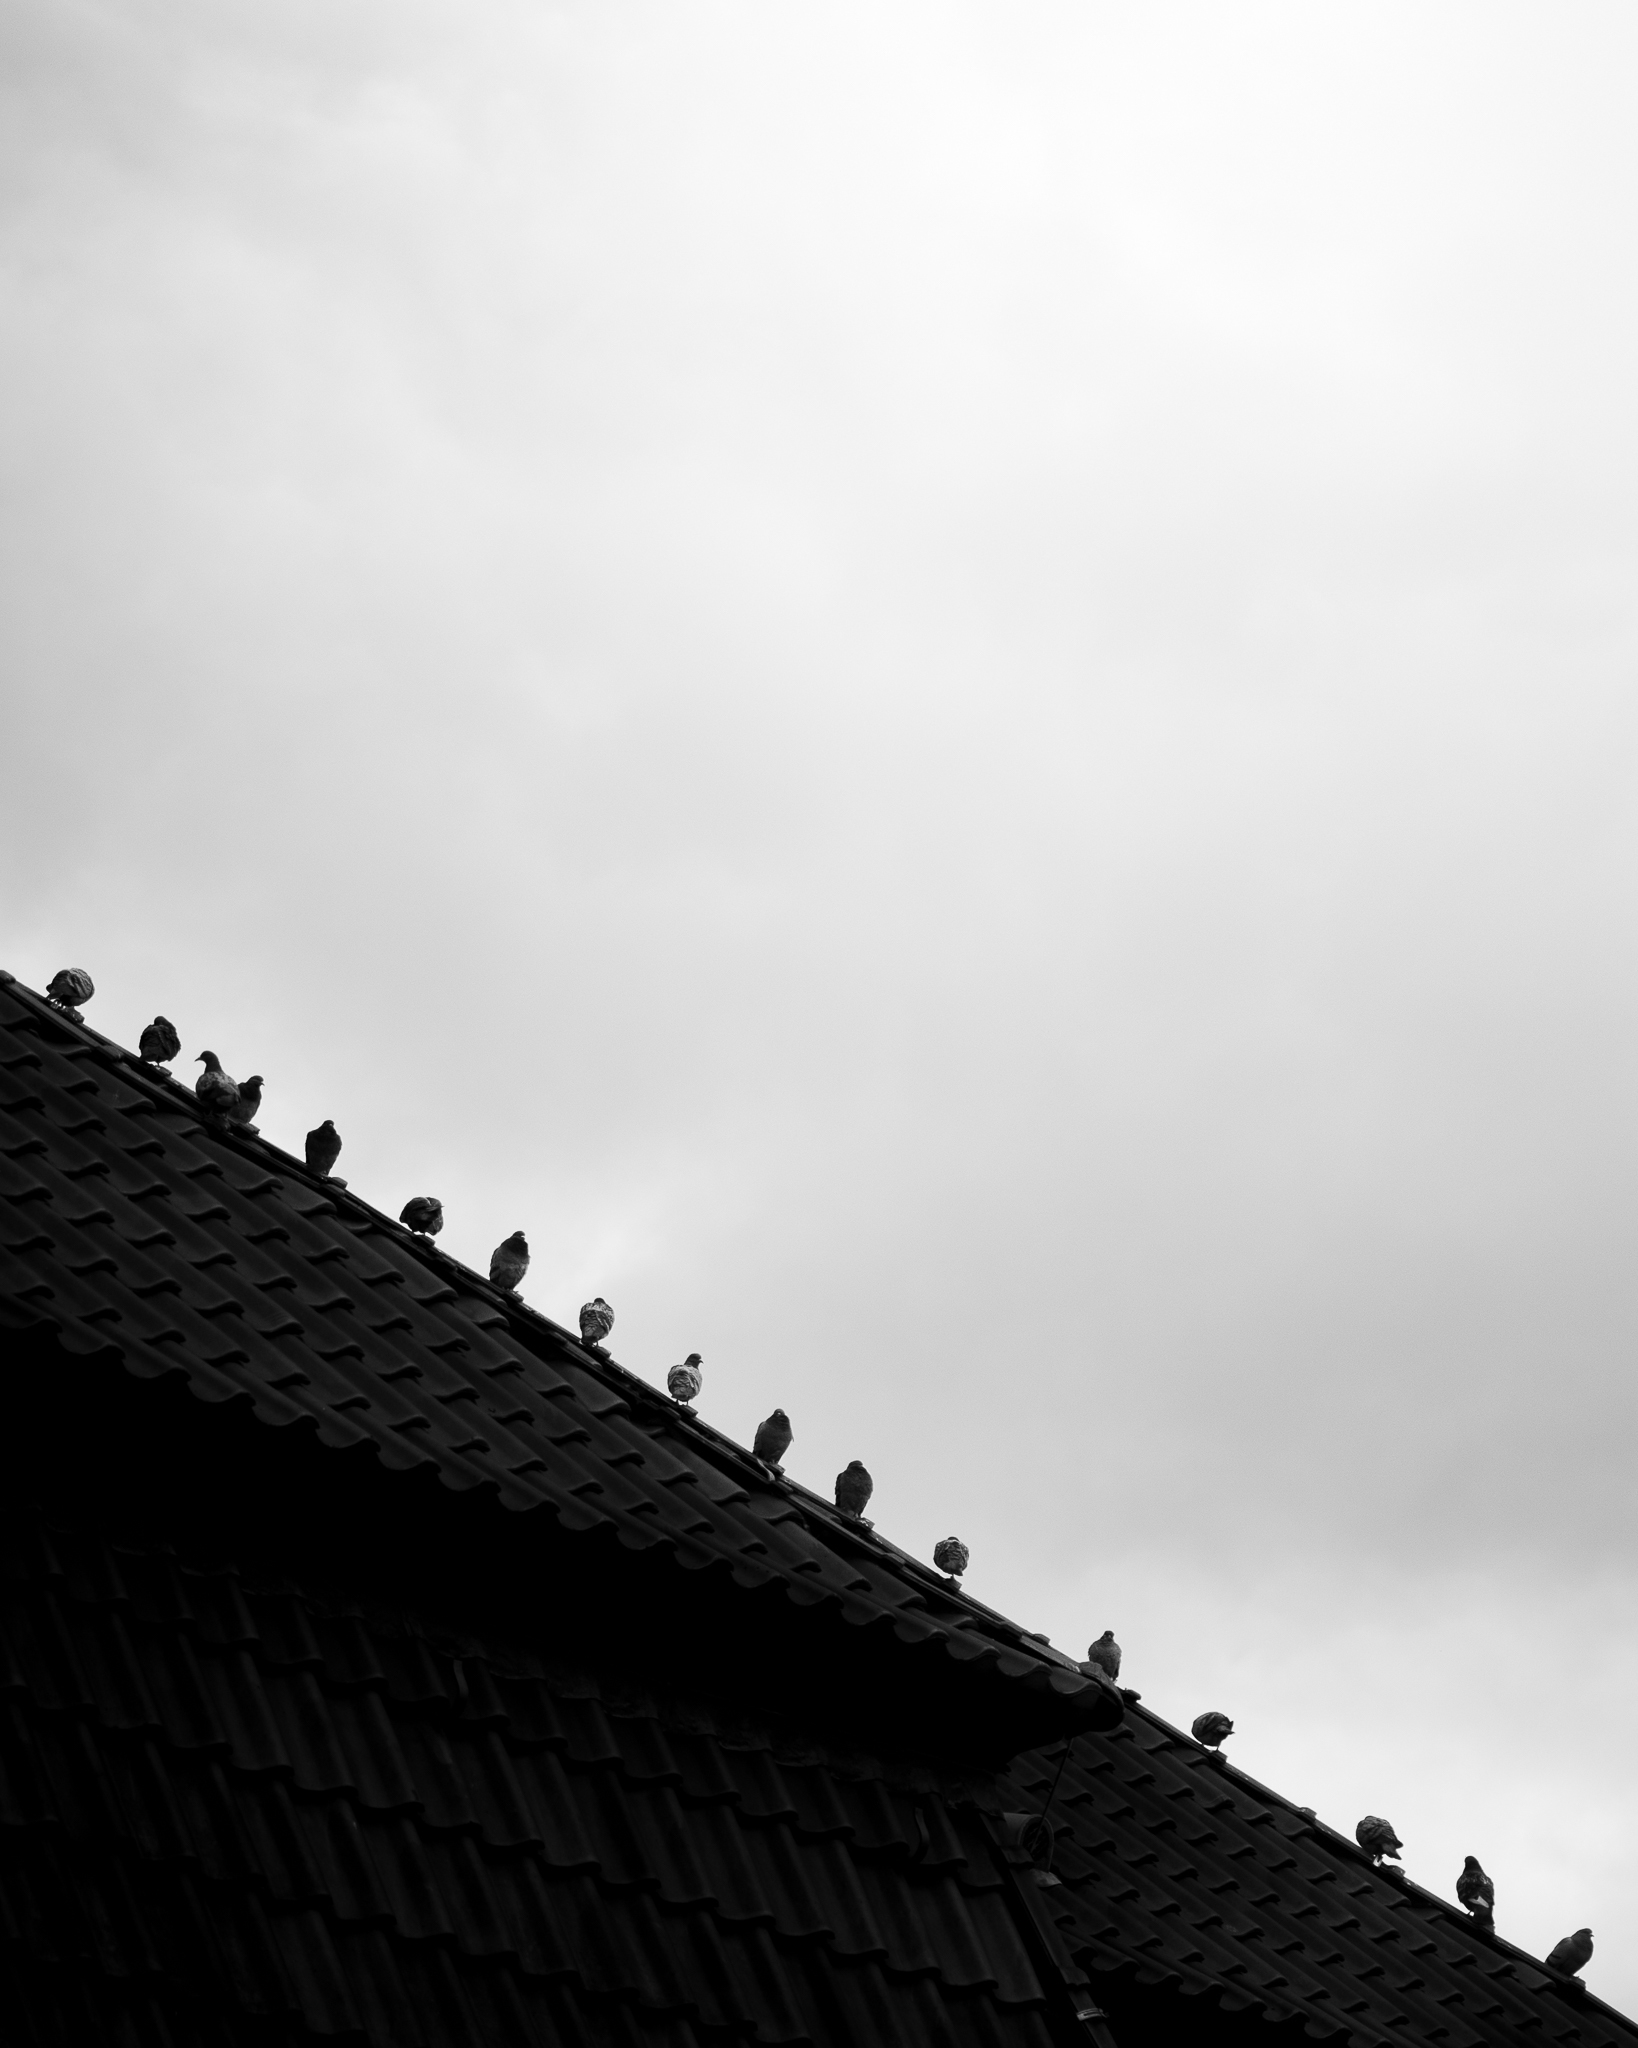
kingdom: Animalia
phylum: Chordata
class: Aves
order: Columbiformes
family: Columbidae
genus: Columba
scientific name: Columba livia
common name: Rock pigeon
